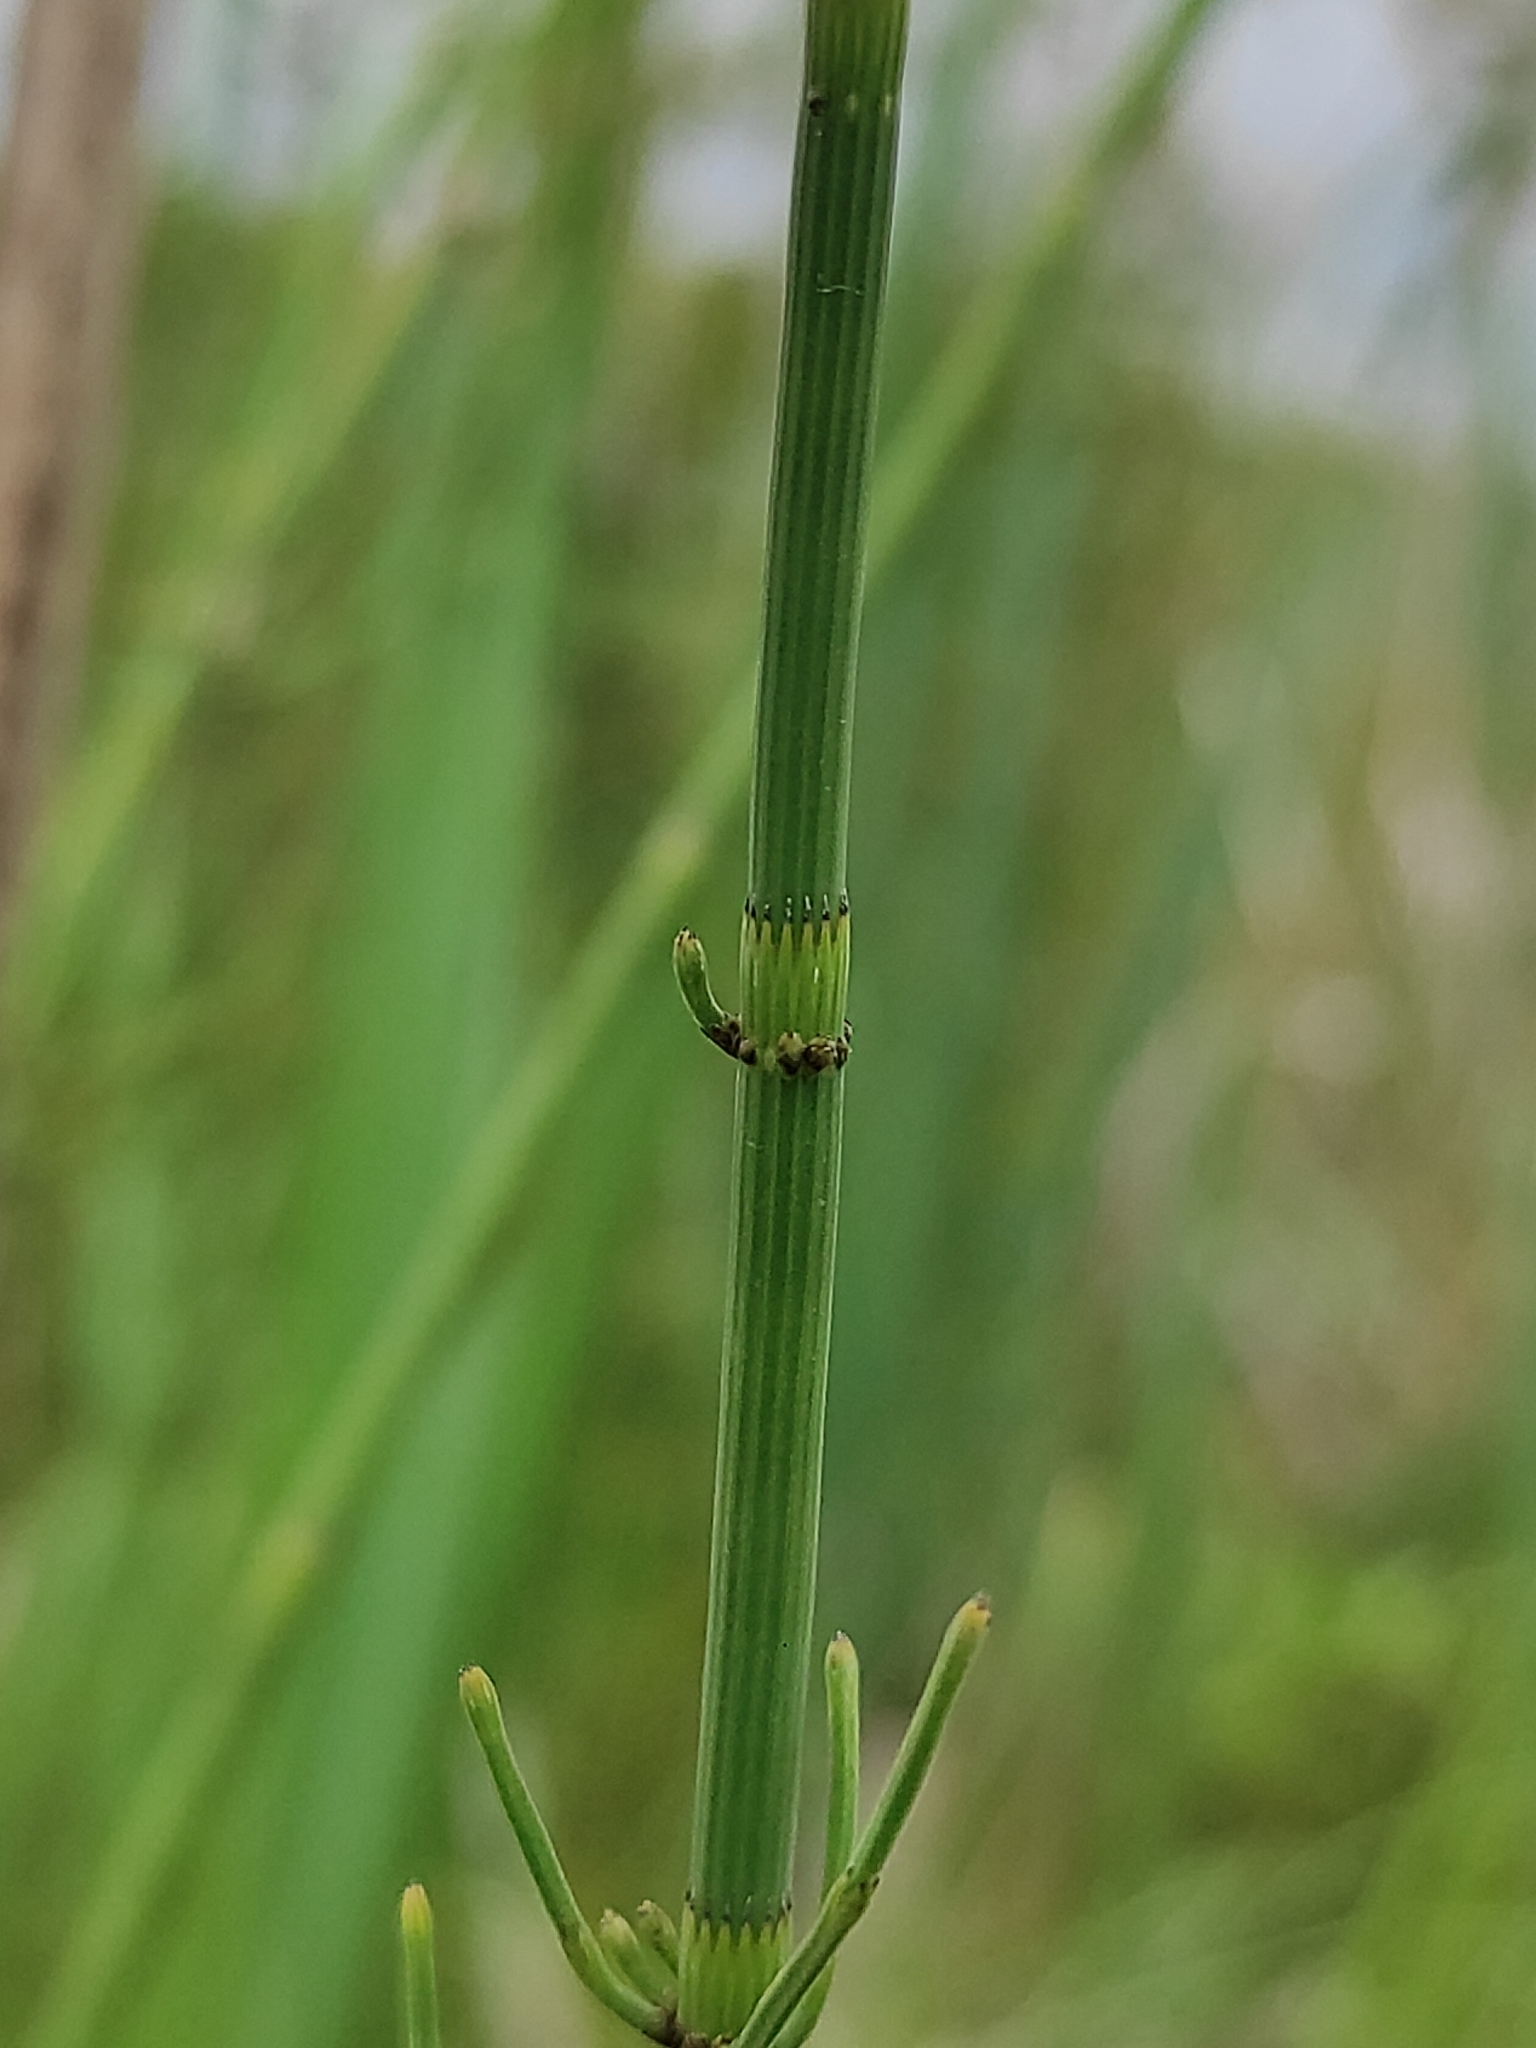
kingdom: Plantae
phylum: Tracheophyta
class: Polypodiopsida
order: Equisetales
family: Equisetaceae
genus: Equisetum
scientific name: Equisetum fluviatile
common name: Water horsetail
